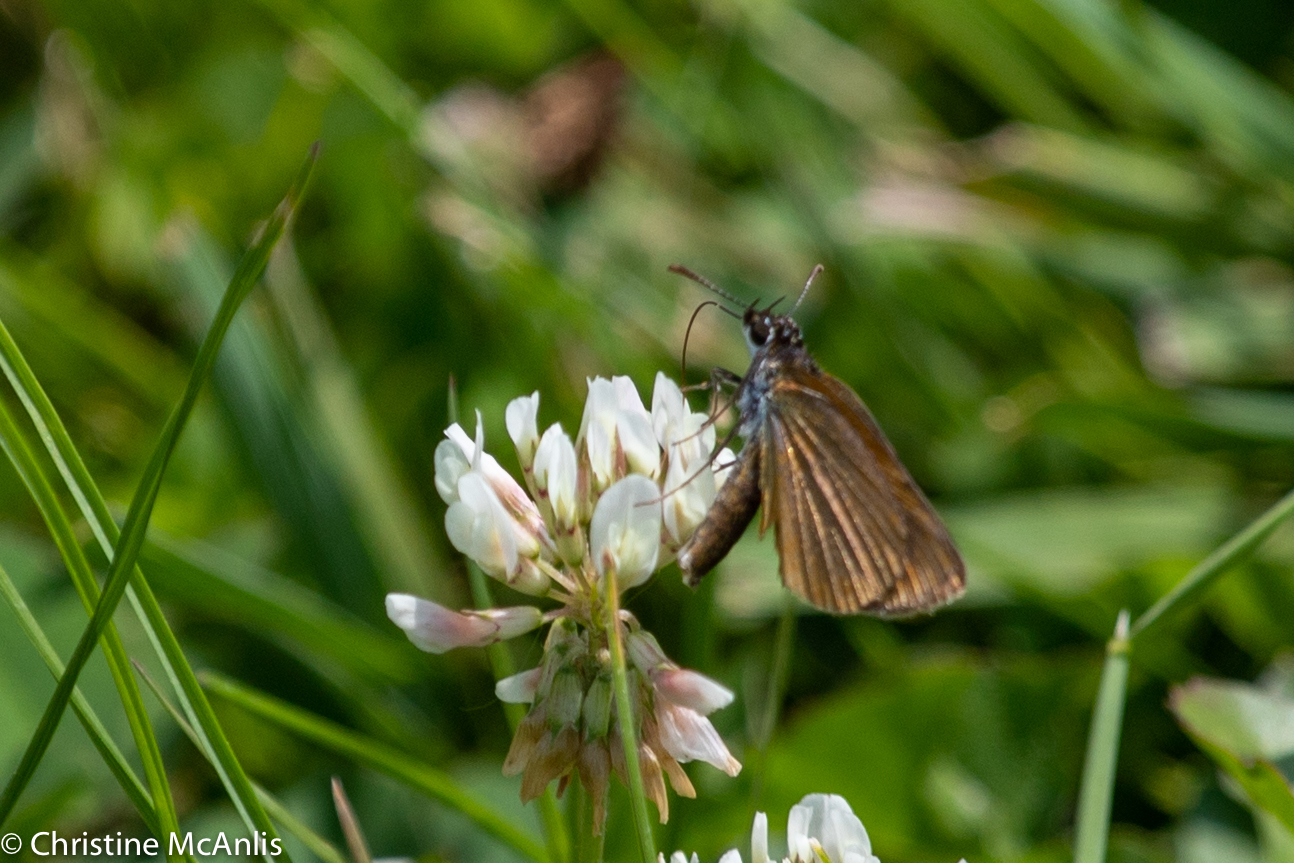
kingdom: Animalia
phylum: Arthropoda
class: Insecta
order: Lepidoptera
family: Hesperiidae
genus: Ancyloxypha
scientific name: Ancyloxypha numitor
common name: Least skipper
